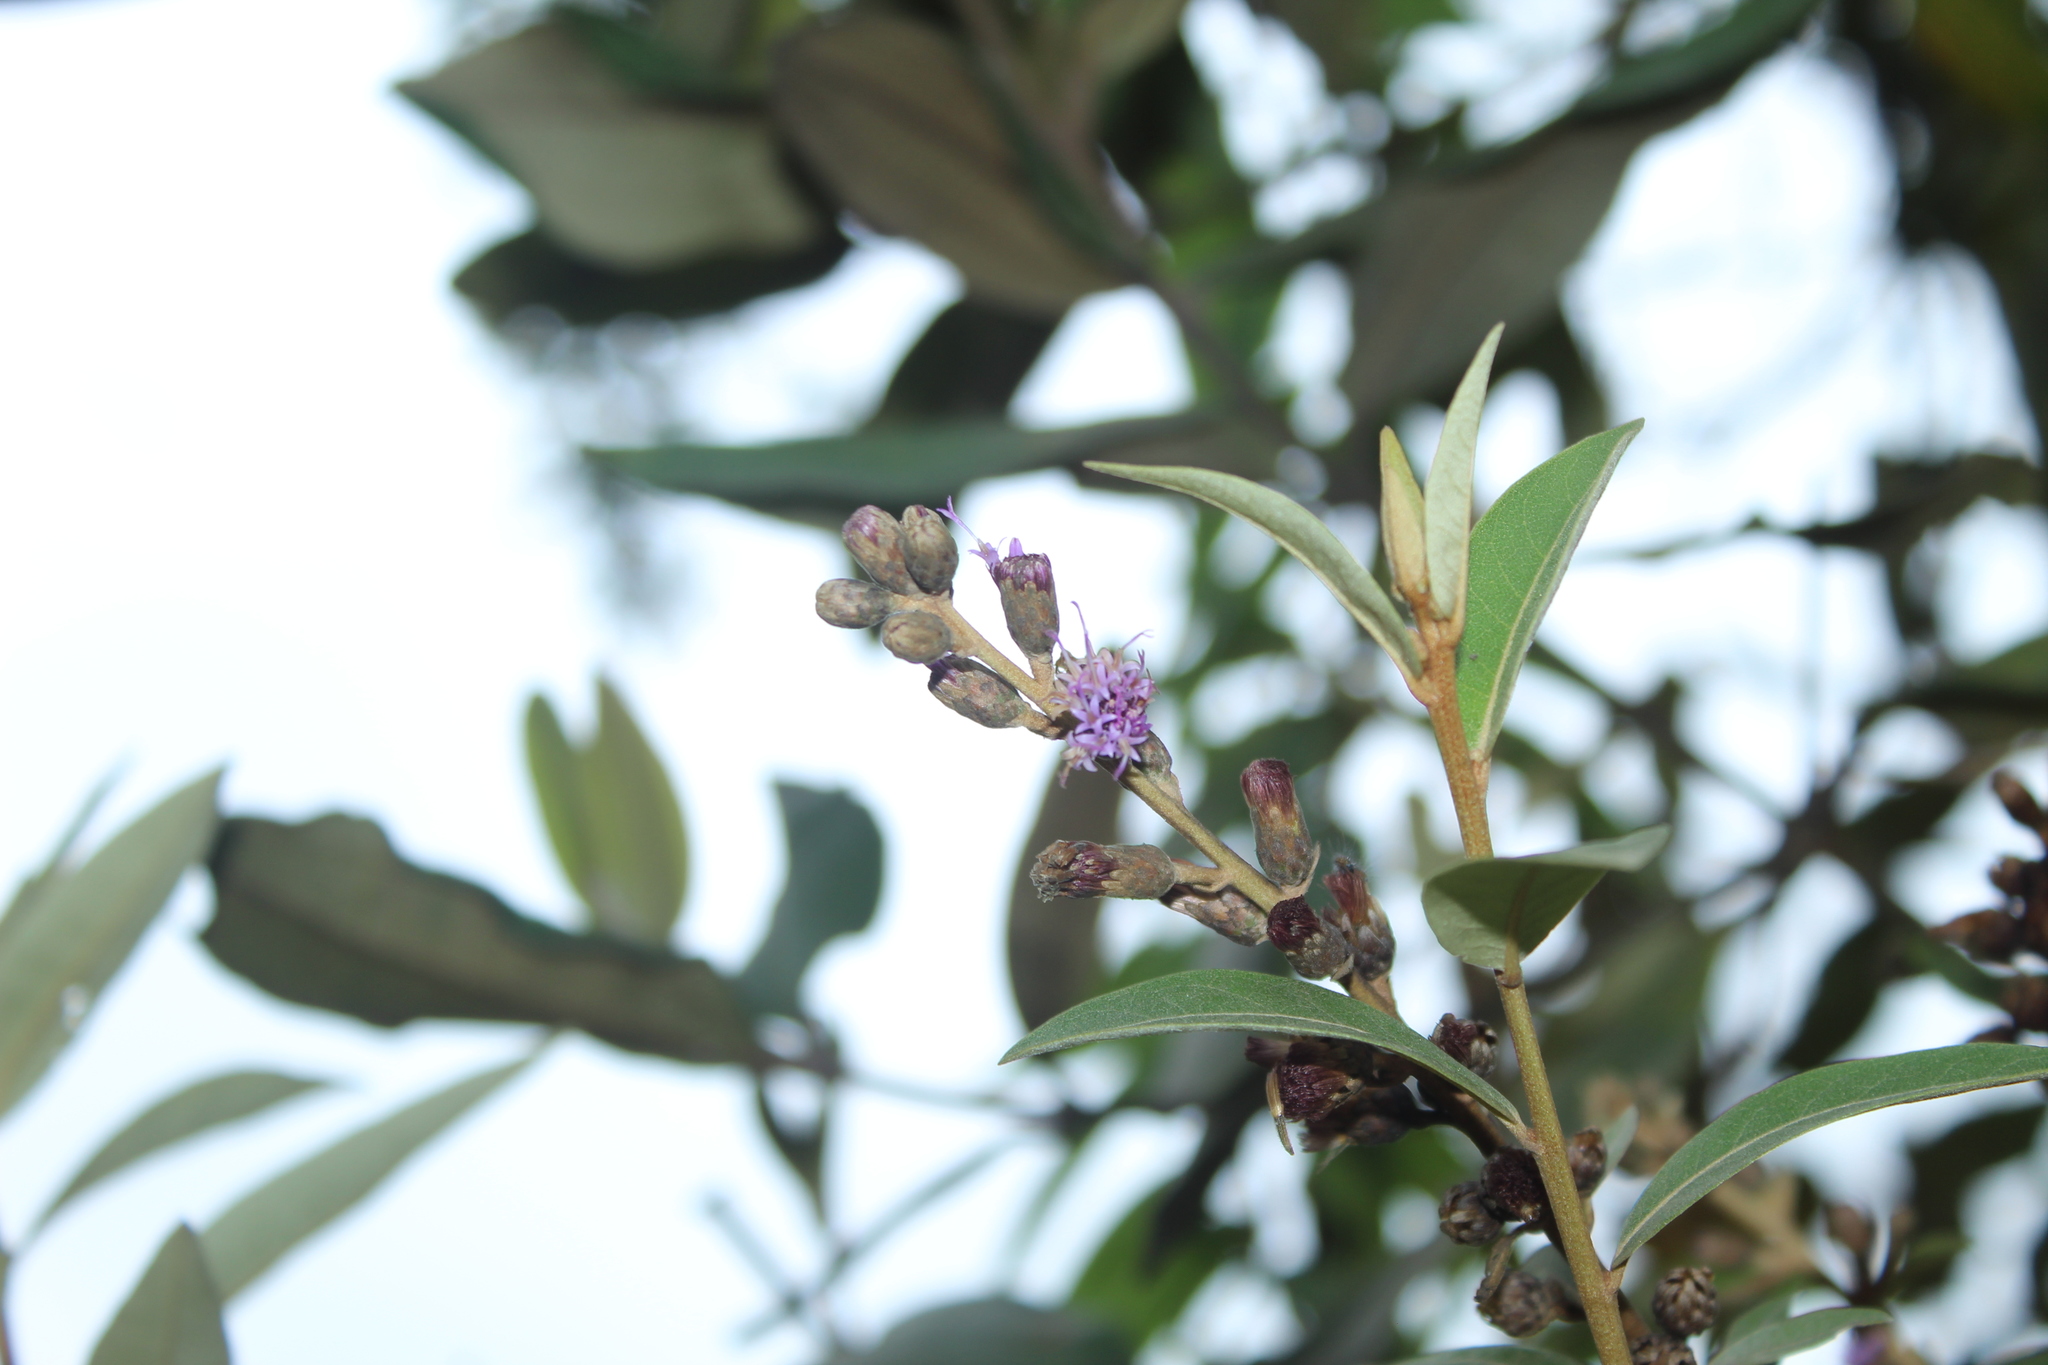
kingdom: Plantae
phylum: Tracheophyta
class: Magnoliopsida
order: Asterales
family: Asteraceae
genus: Lepidaploa
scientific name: Lepidaploa karstenii
